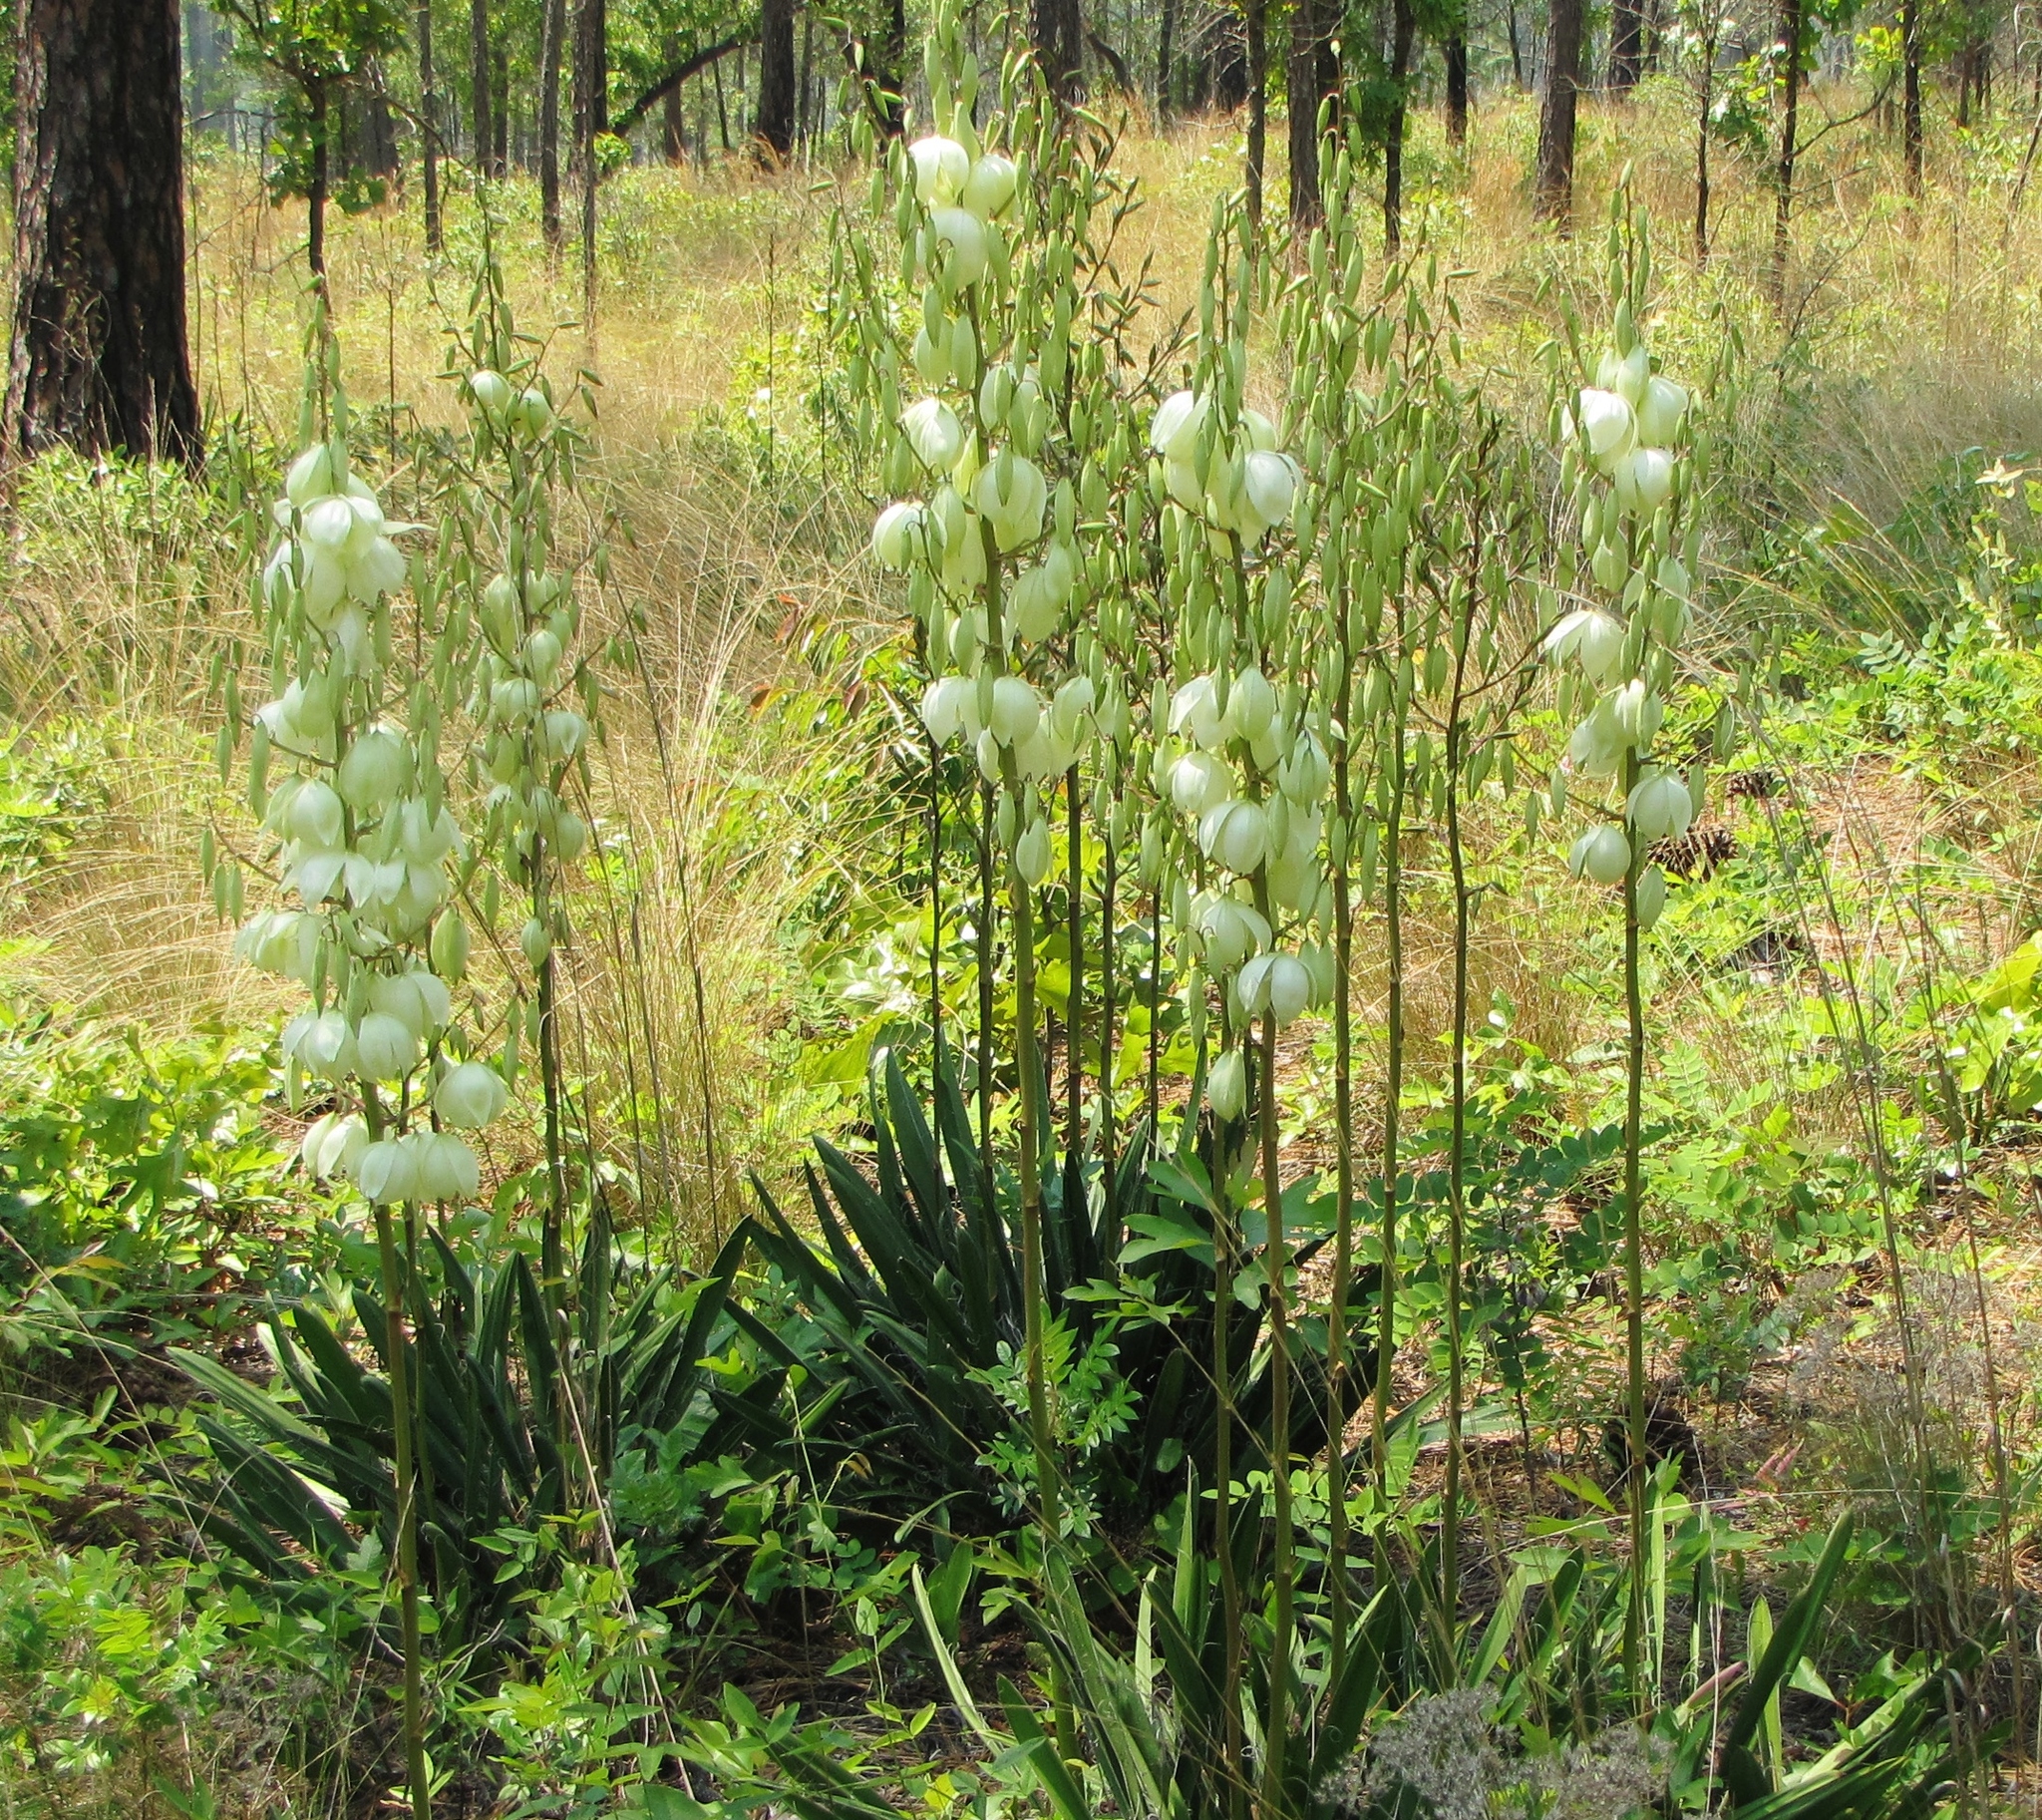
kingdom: Plantae
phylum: Tracheophyta
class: Liliopsida
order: Asparagales
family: Asparagaceae
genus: Yucca
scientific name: Yucca filamentosa
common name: Adam's-needle
